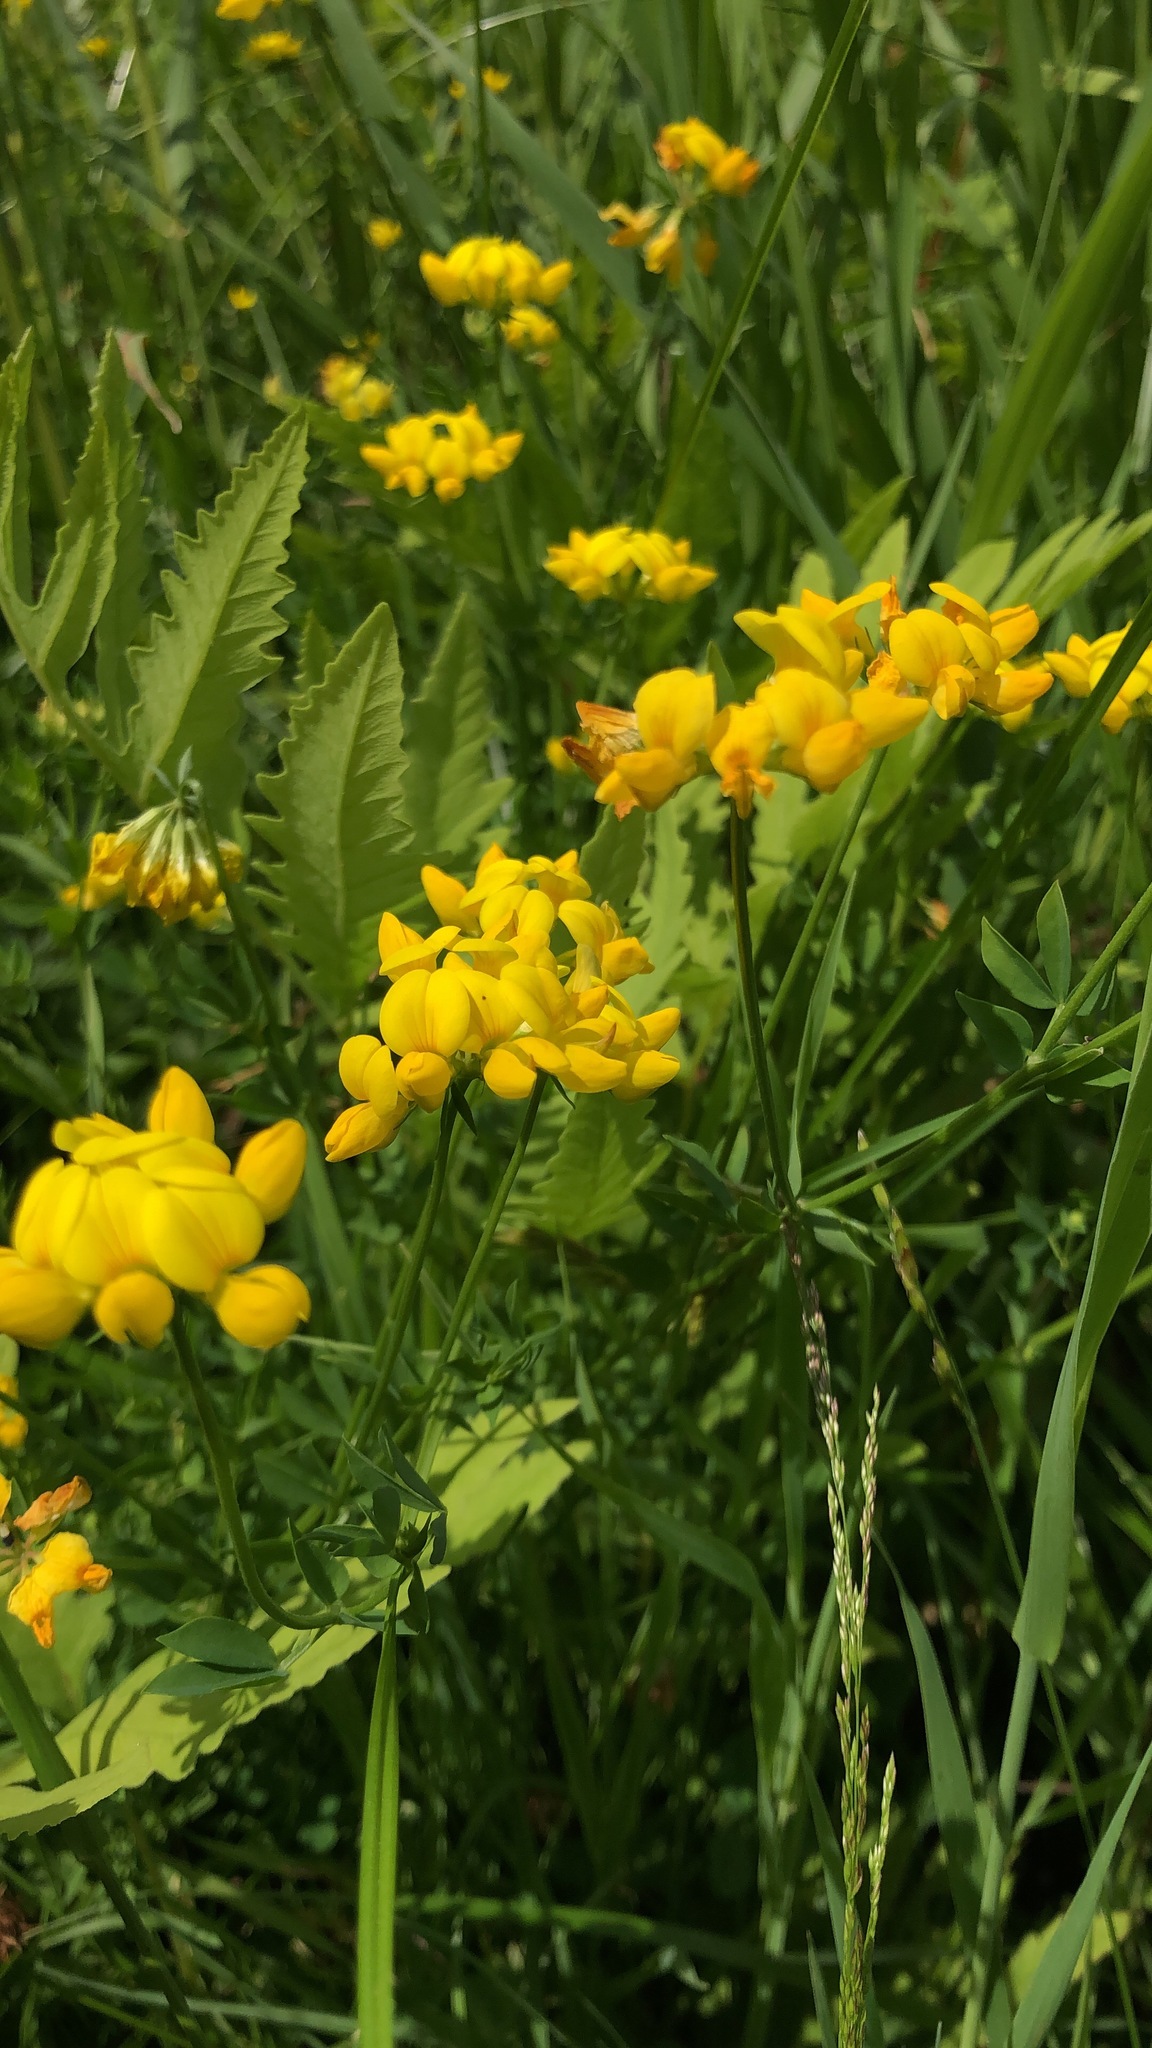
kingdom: Plantae
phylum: Tracheophyta
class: Magnoliopsida
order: Fabales
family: Fabaceae
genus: Lotus
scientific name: Lotus corniculatus
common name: Common bird's-foot-trefoil
